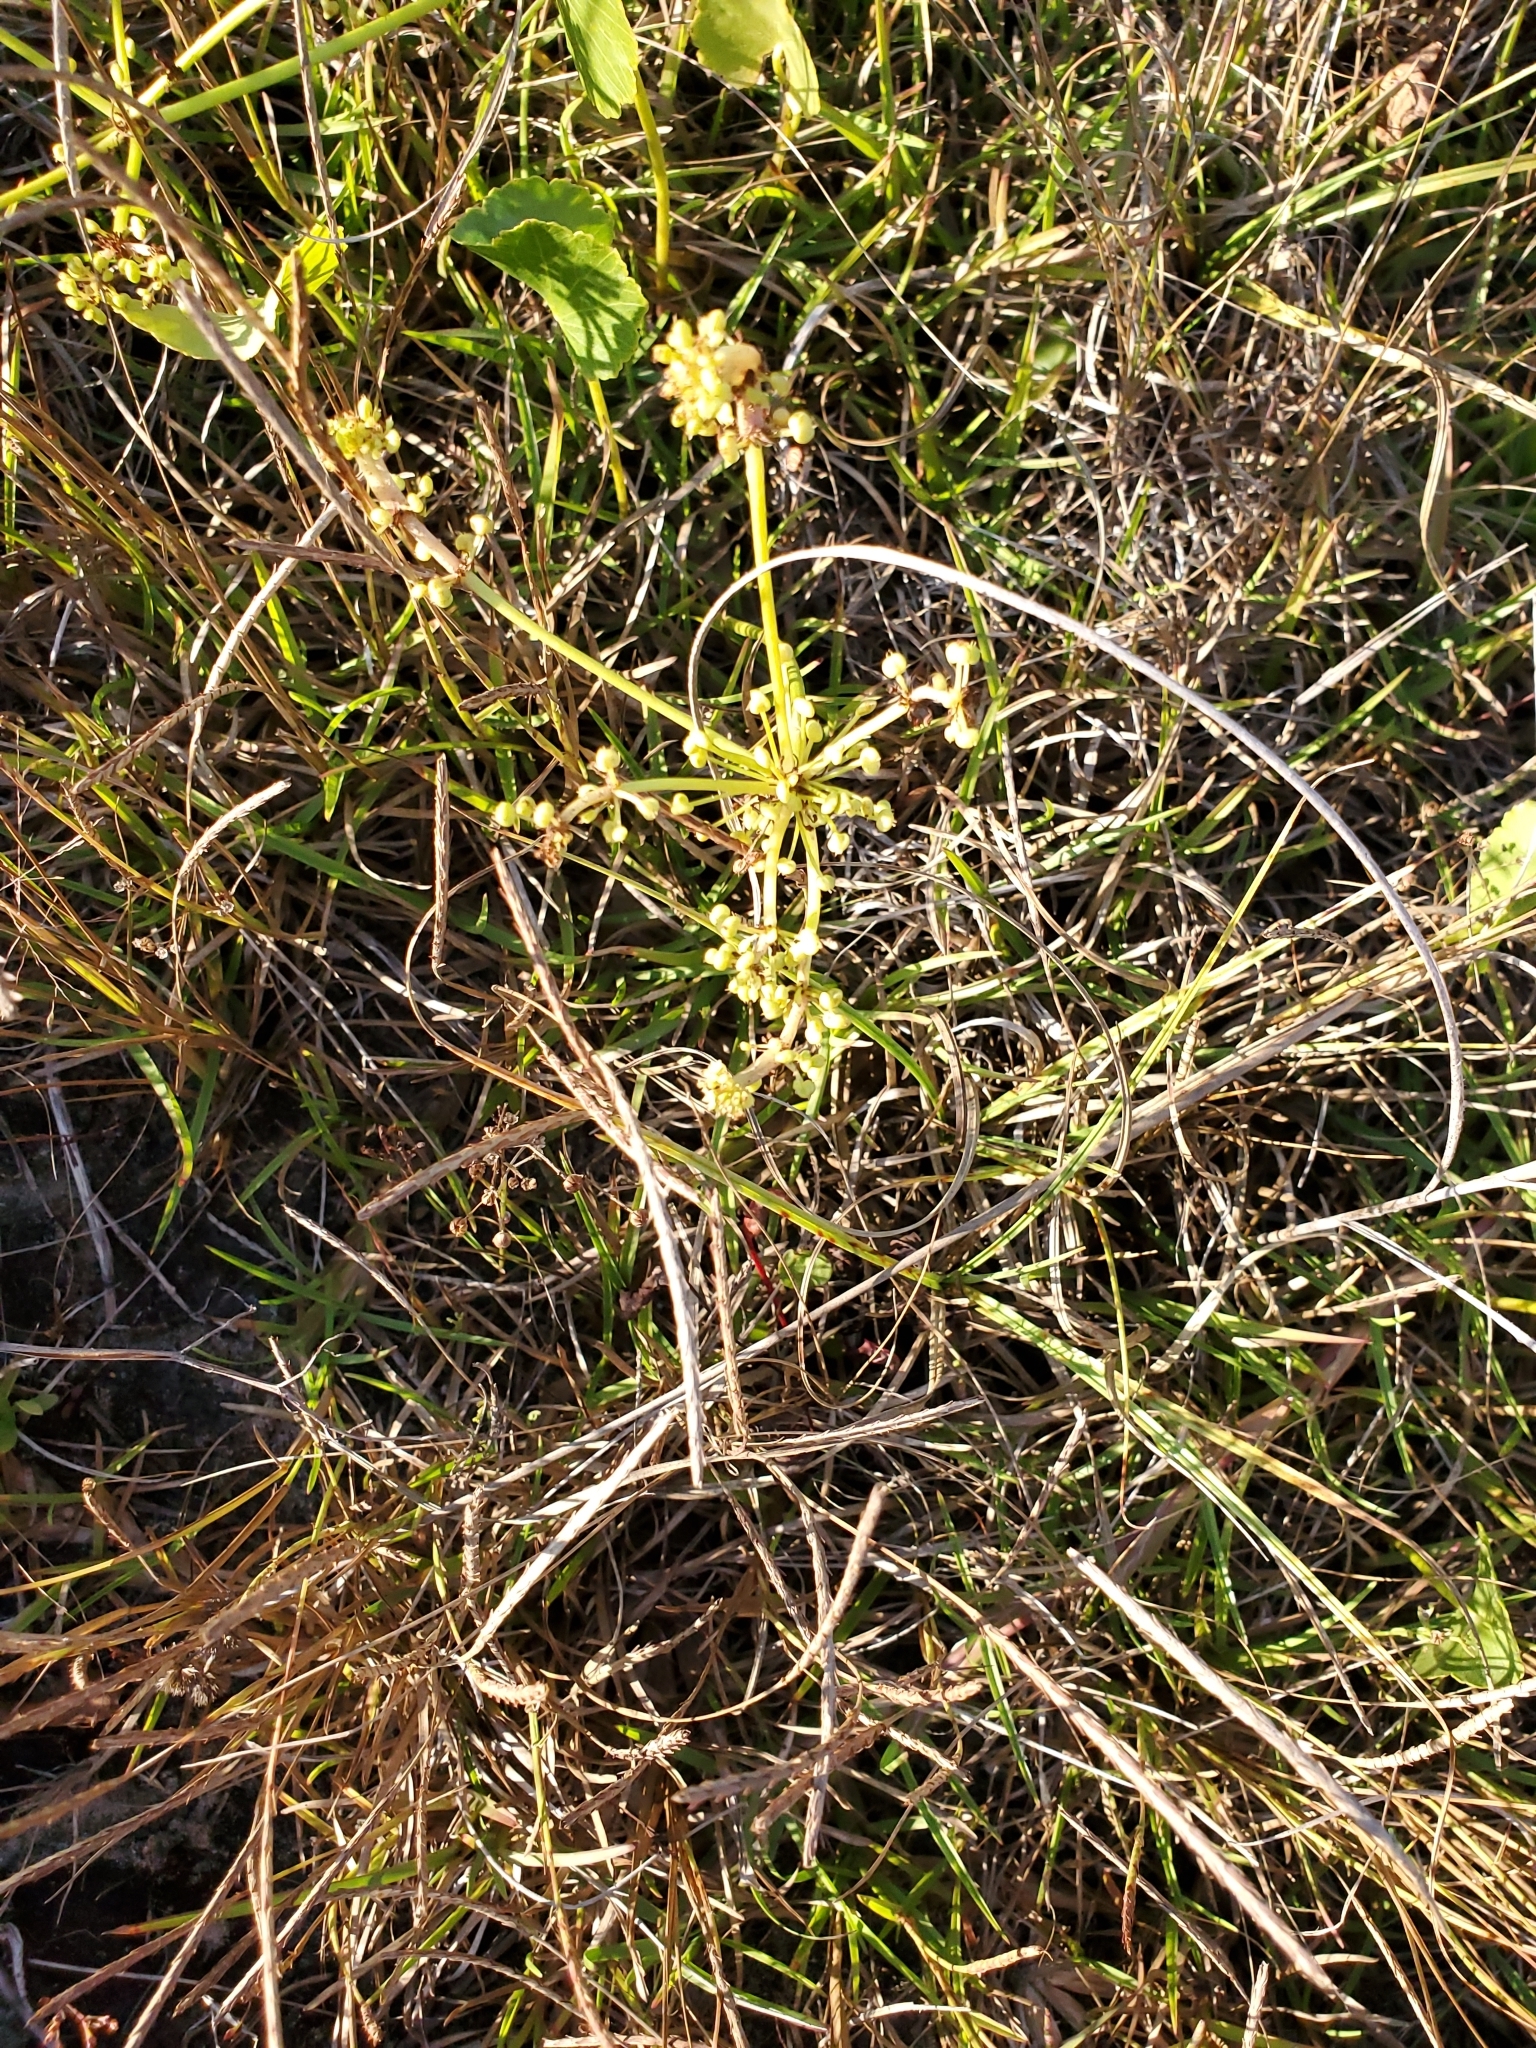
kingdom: Plantae
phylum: Tracheophyta
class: Magnoliopsida
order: Apiales
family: Araliaceae
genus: Hydrocotyle
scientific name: Hydrocotyle bonariensis
